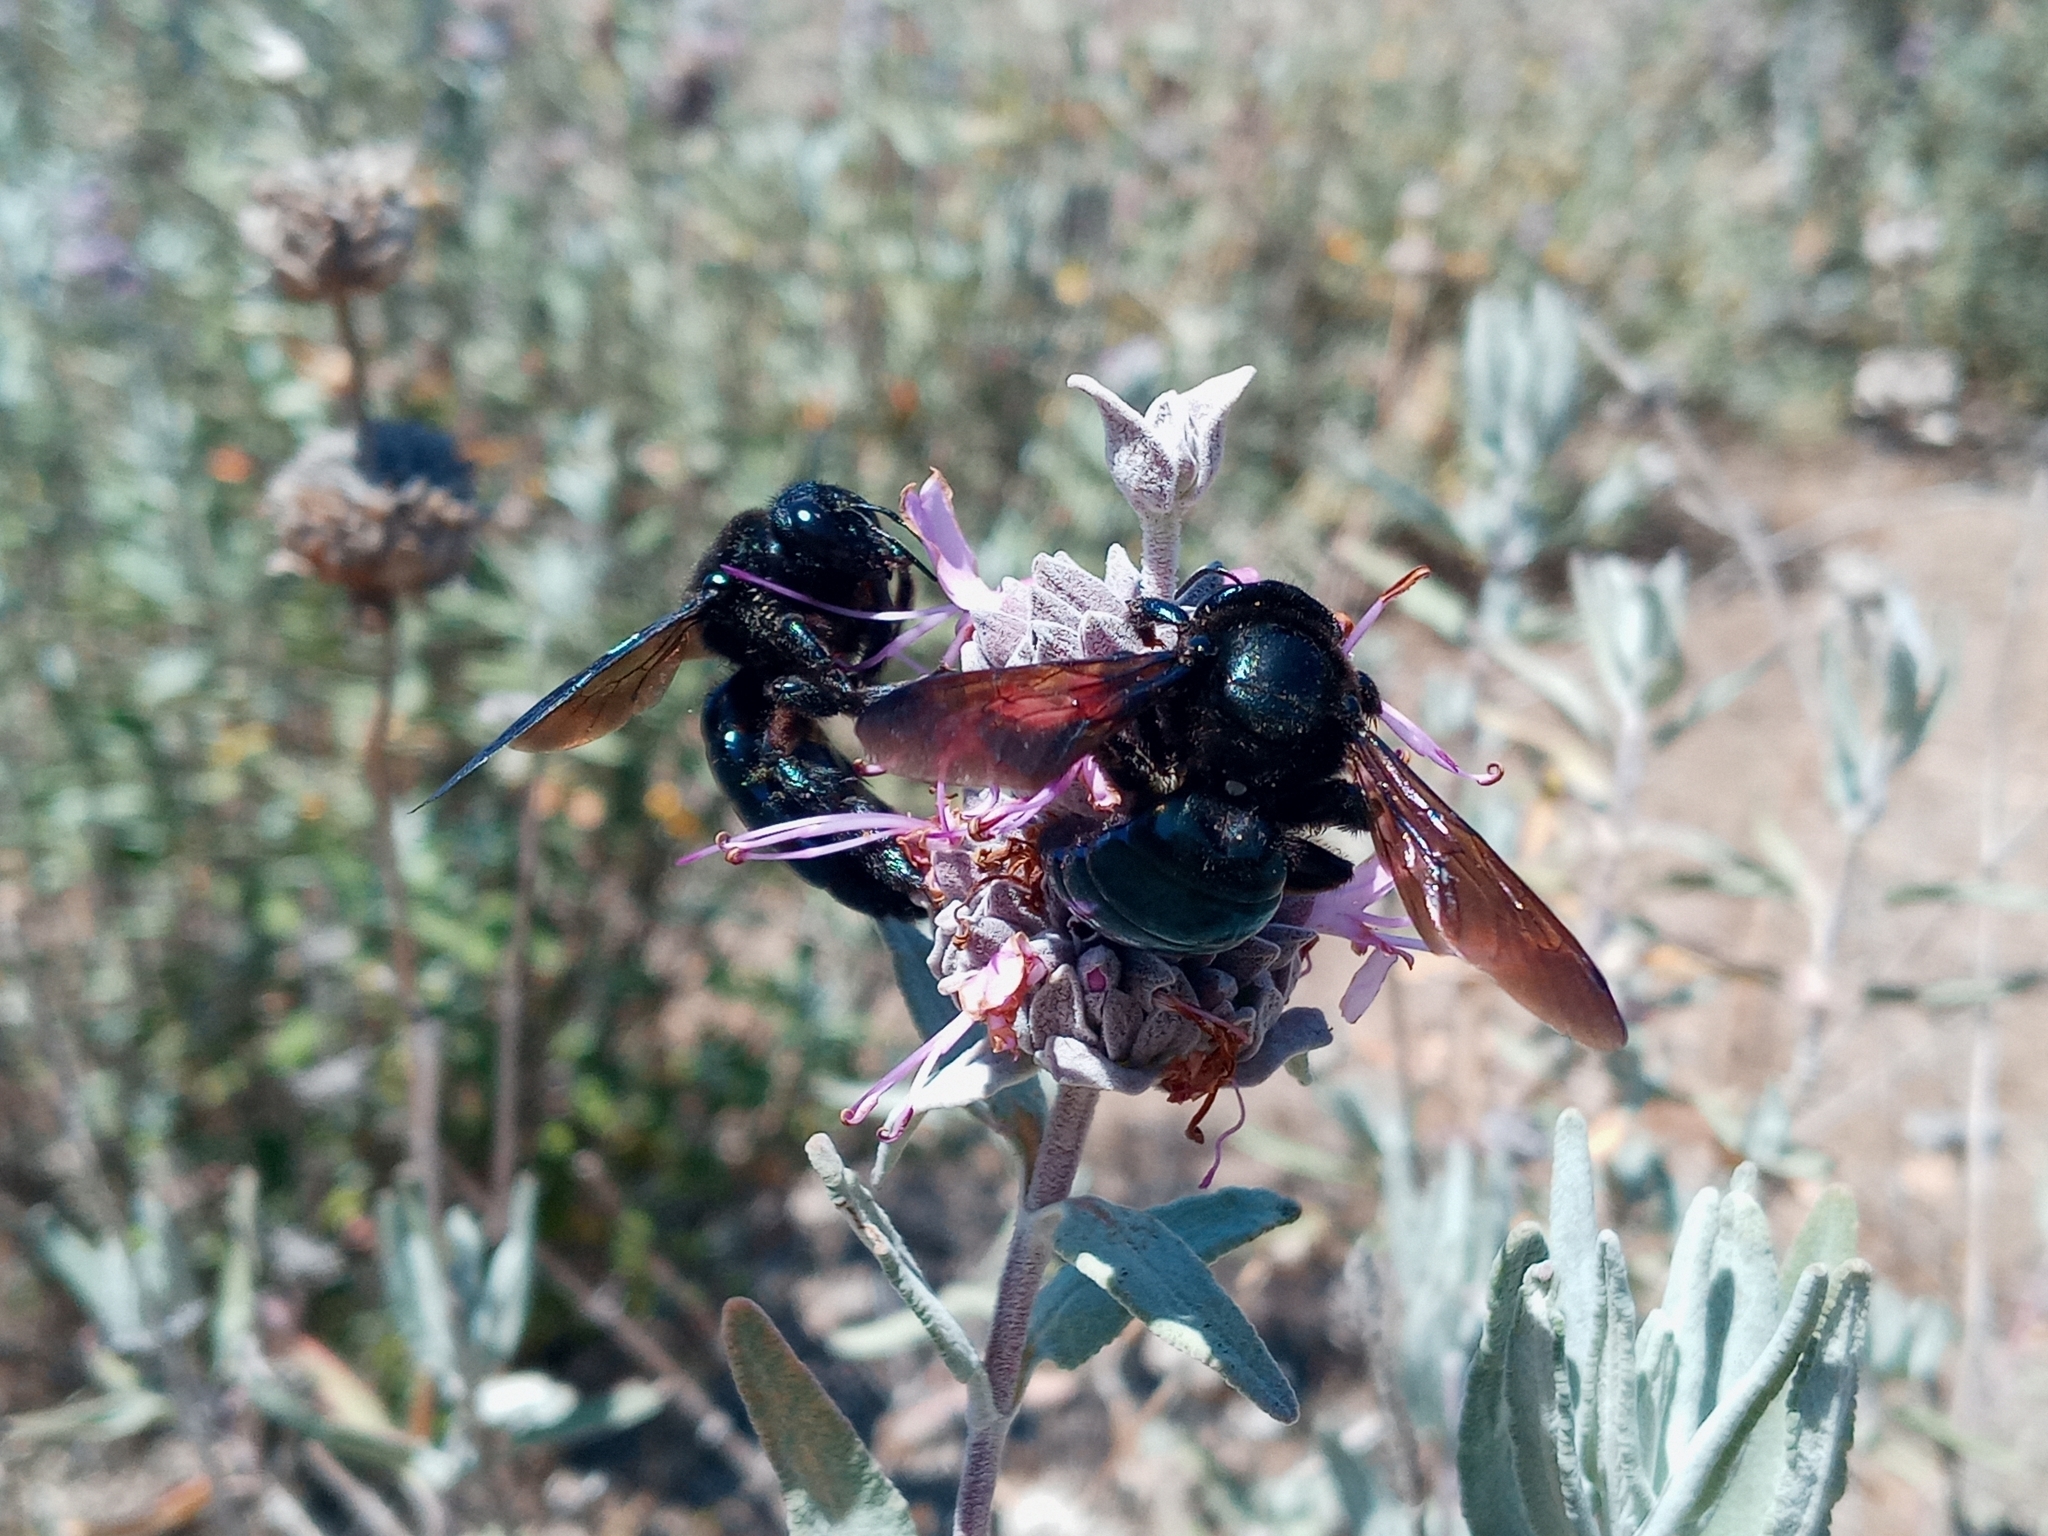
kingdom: Animalia
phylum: Arthropoda
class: Insecta
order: Hymenoptera
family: Apidae
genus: Xylocopa
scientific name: Xylocopa californica
